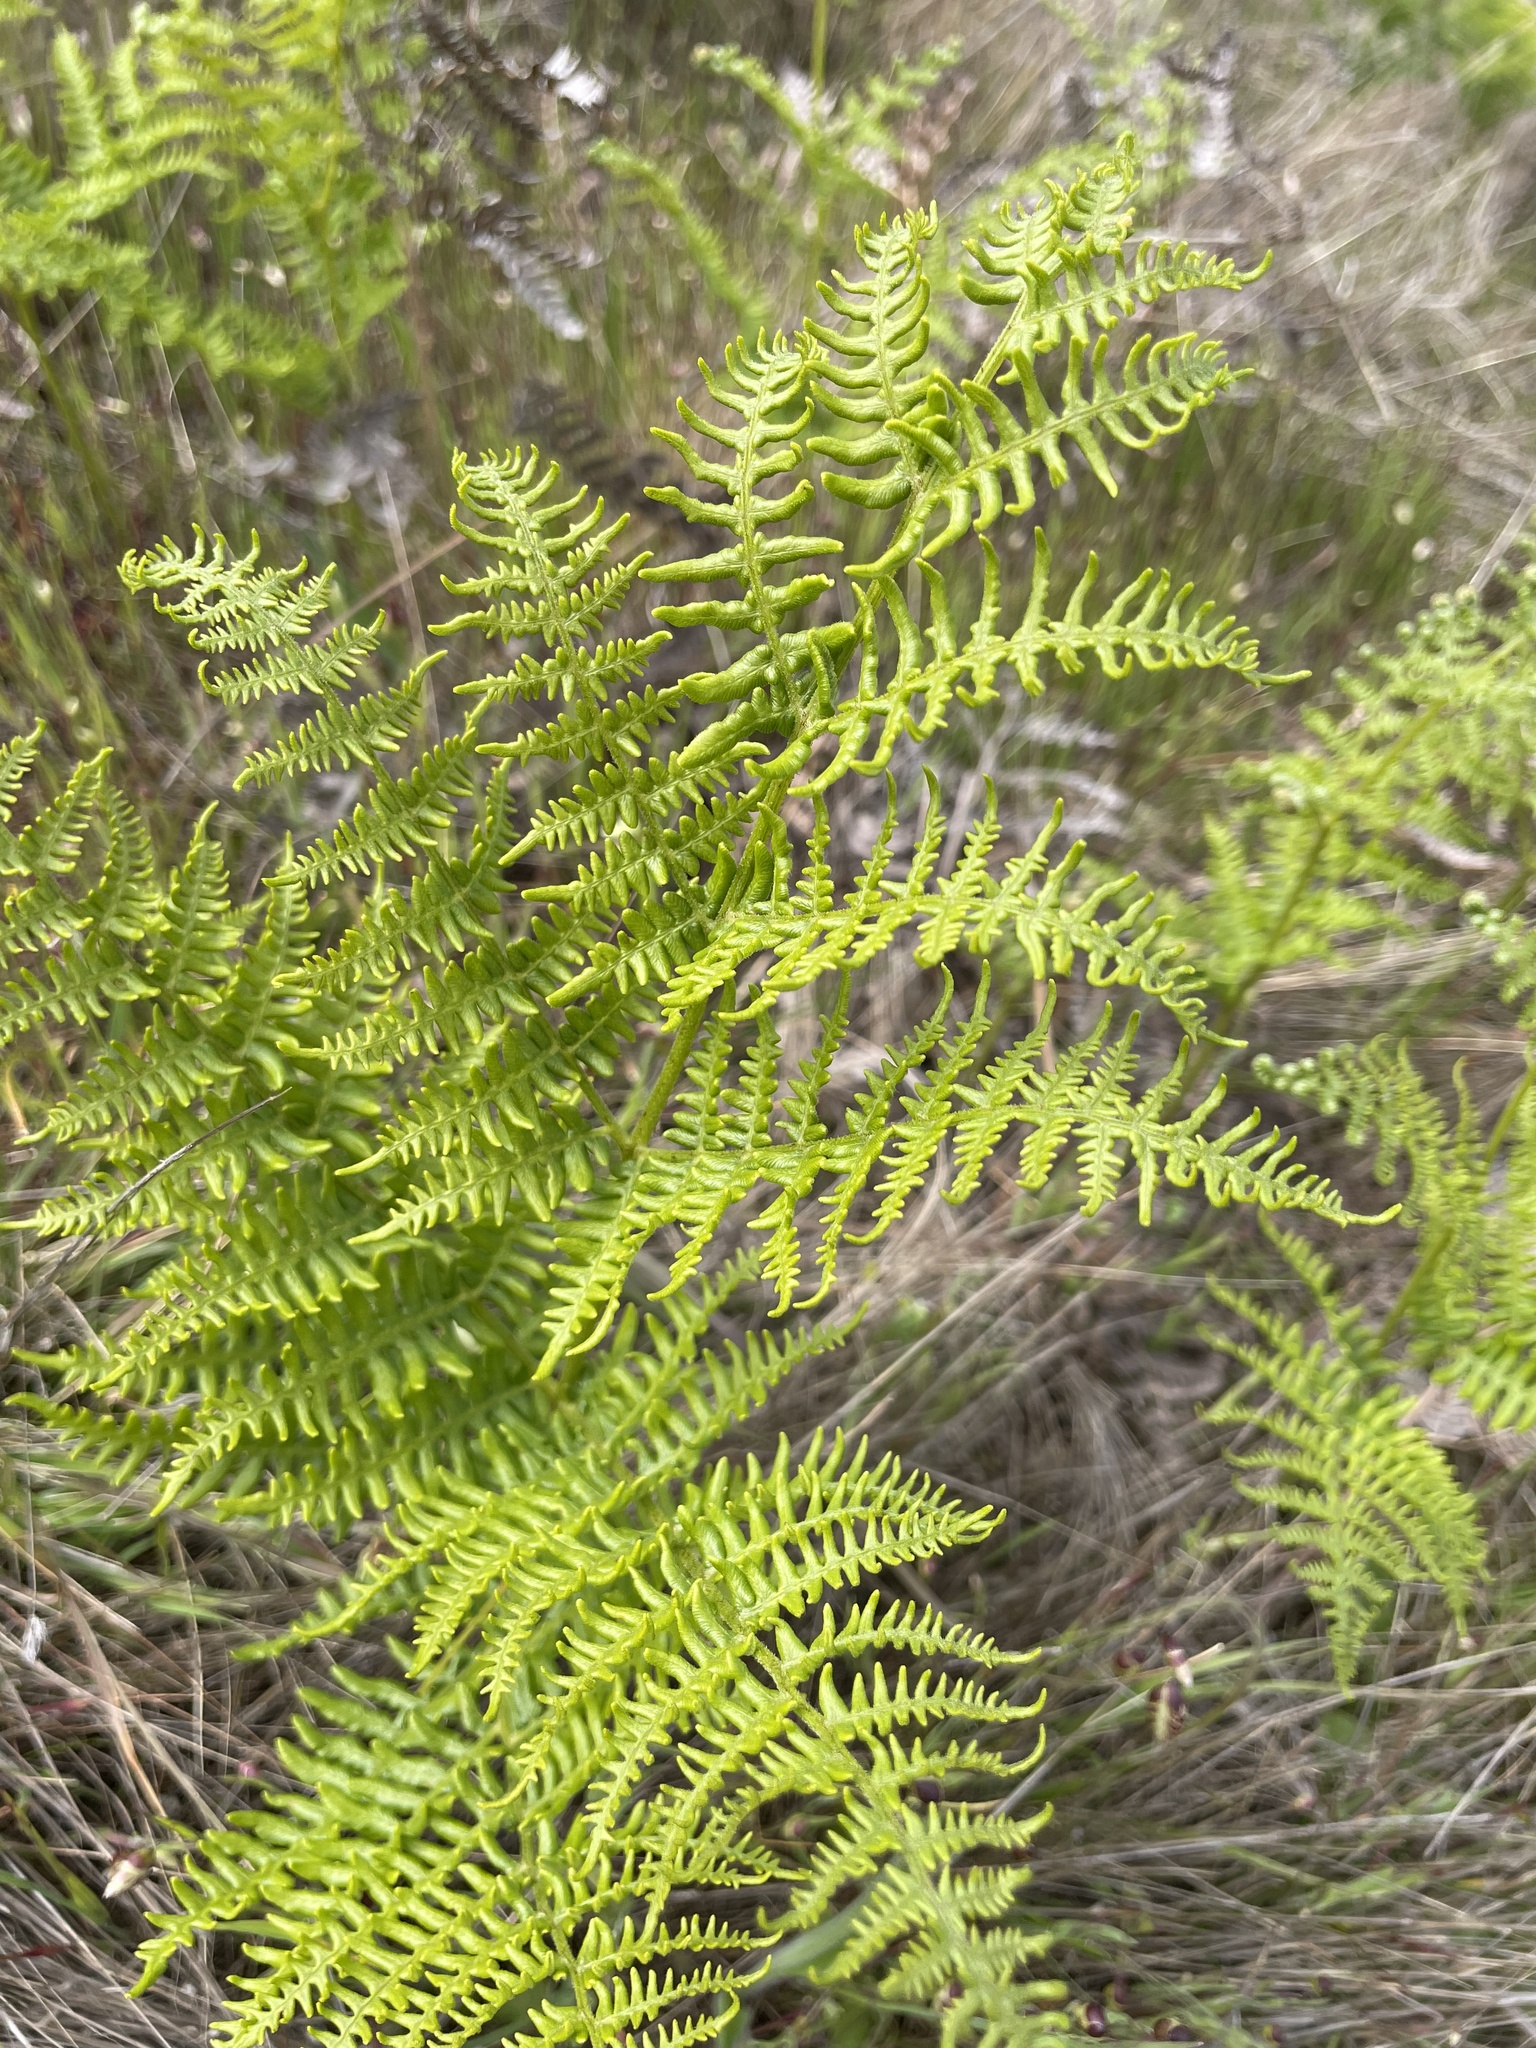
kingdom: Plantae
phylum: Tracheophyta
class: Polypodiopsida
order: Polypodiales
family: Dennstaedtiaceae
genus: Pteridium
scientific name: Pteridium aquilinum
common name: Bracken
